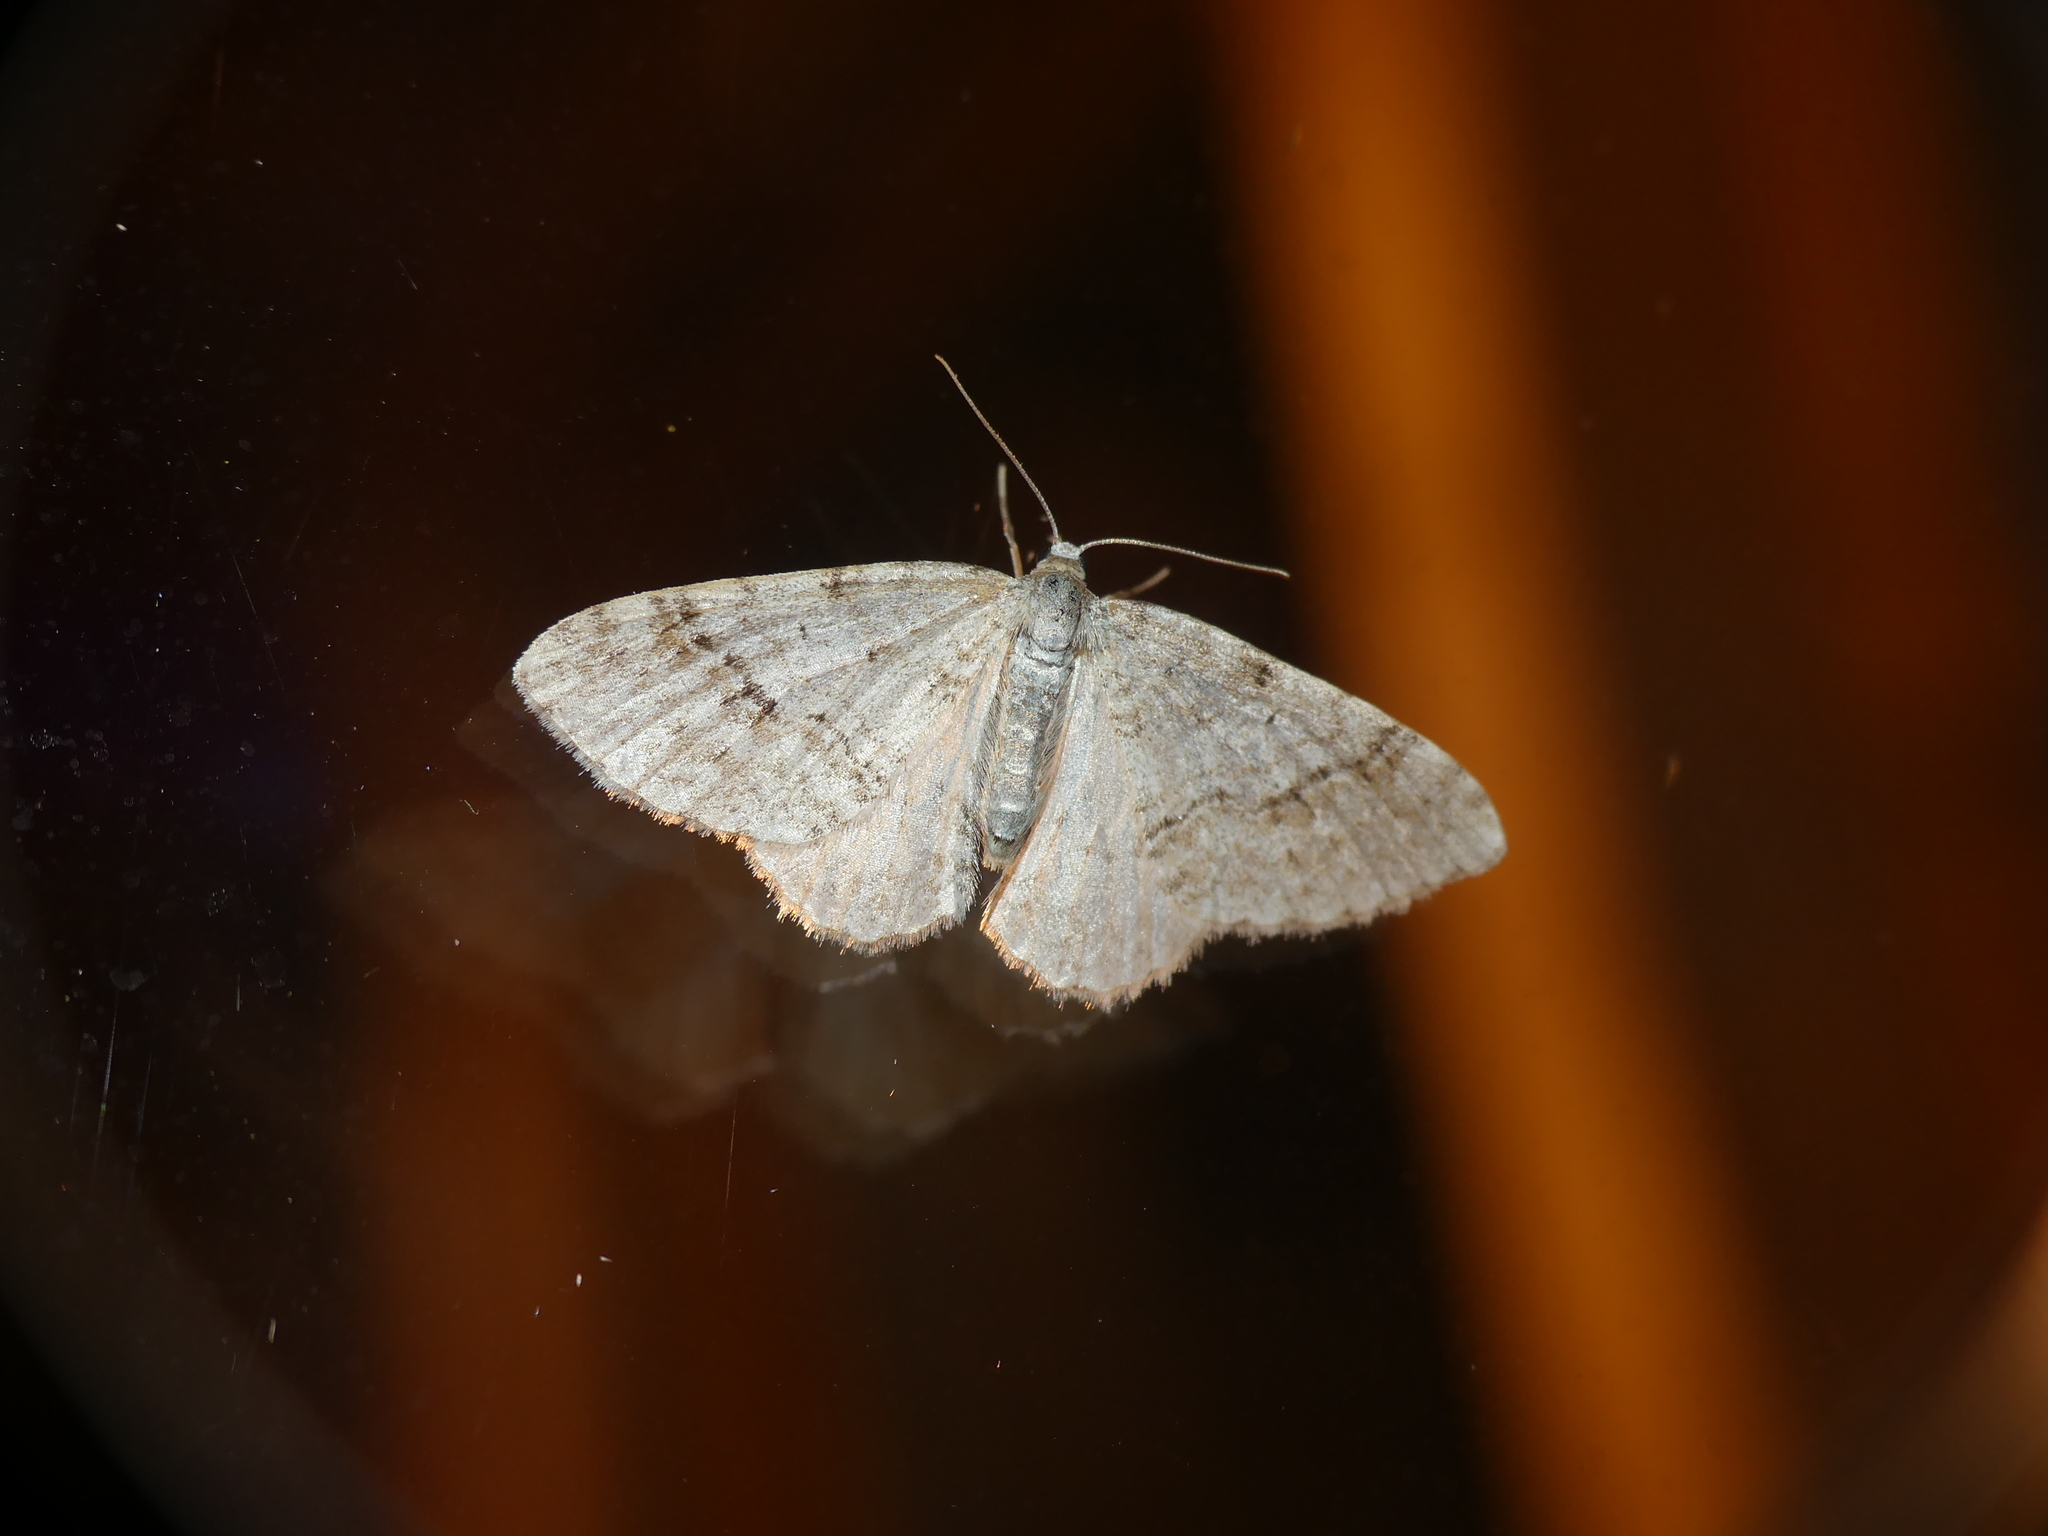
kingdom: Animalia
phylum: Arthropoda
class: Insecta
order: Lepidoptera
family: Geometridae
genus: Venusia
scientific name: Venusia cambrica
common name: Welsh wave
